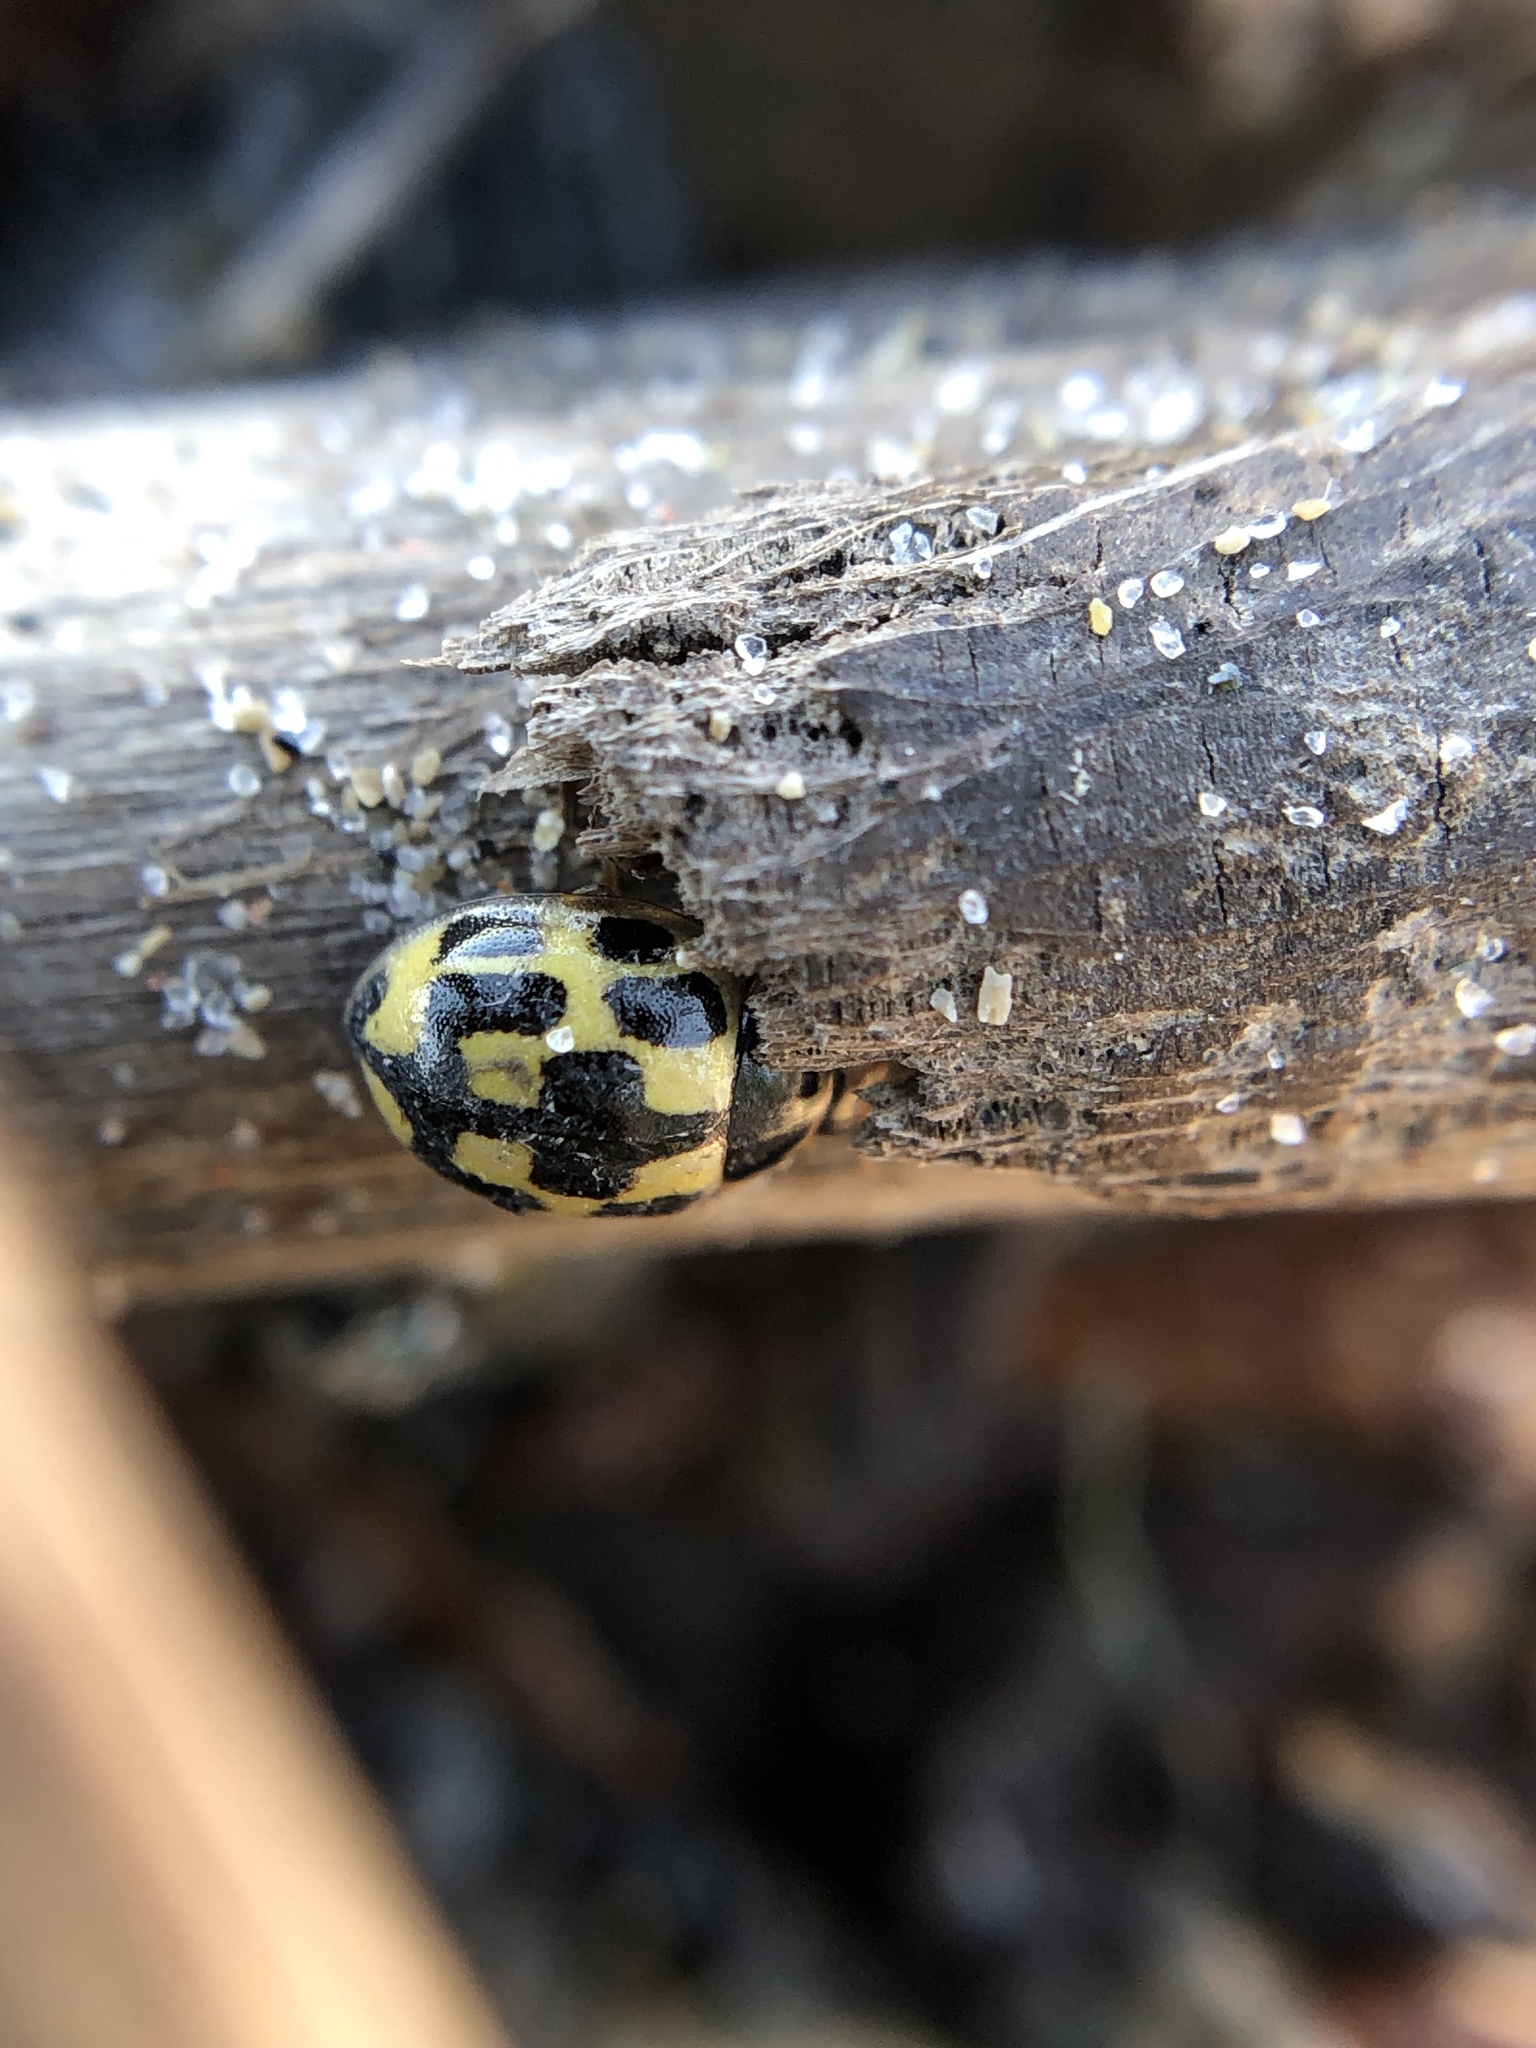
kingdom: Animalia
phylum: Arthropoda
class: Insecta
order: Coleoptera
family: Coccinellidae
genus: Propylaea
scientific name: Propylaea quatuordecimpunctata
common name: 14-spotted ladybird beetle
